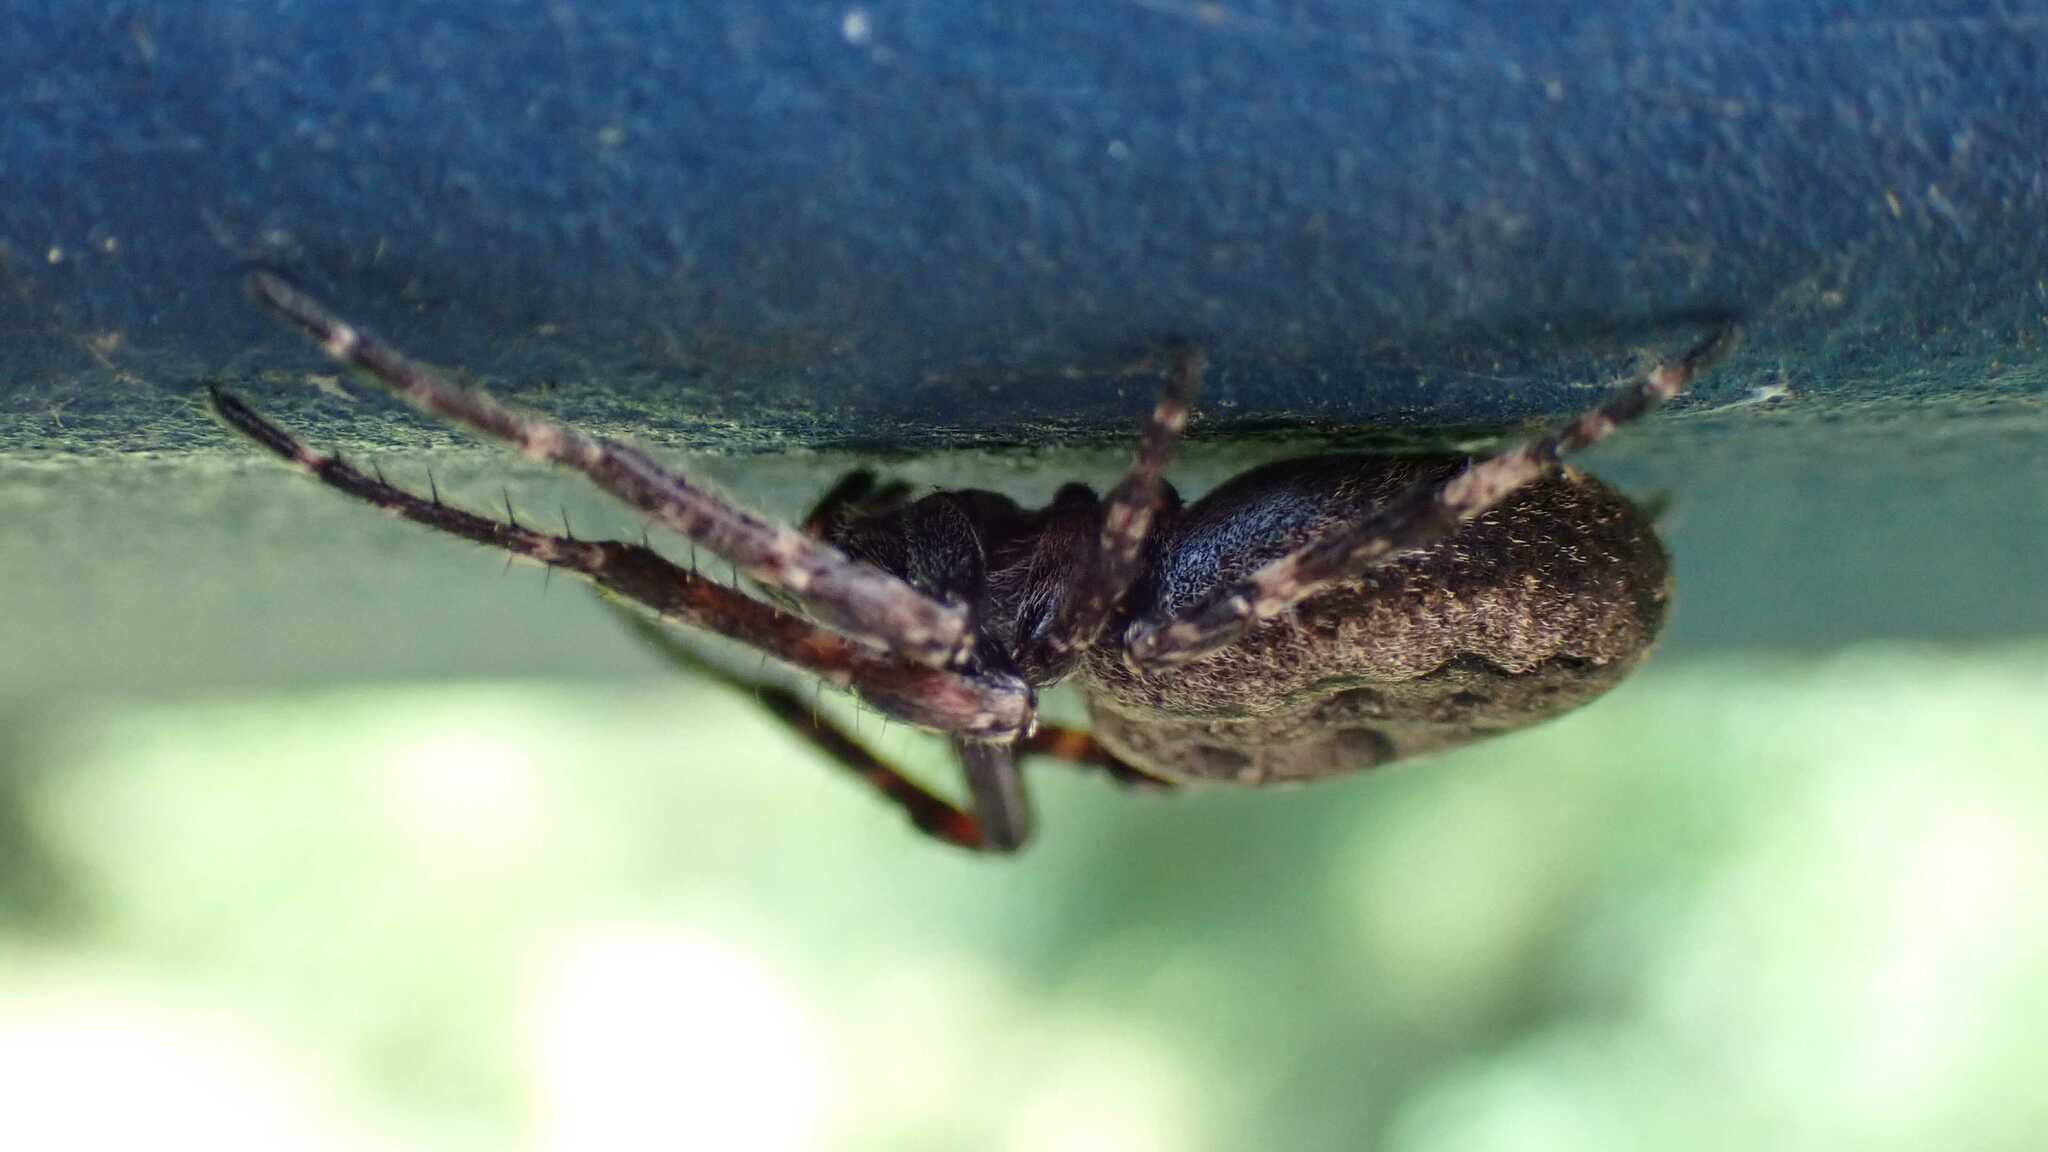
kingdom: Animalia
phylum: Arthropoda
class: Arachnida
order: Araneae
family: Araneidae
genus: Nuctenea
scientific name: Nuctenea umbratica
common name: Toad spider
